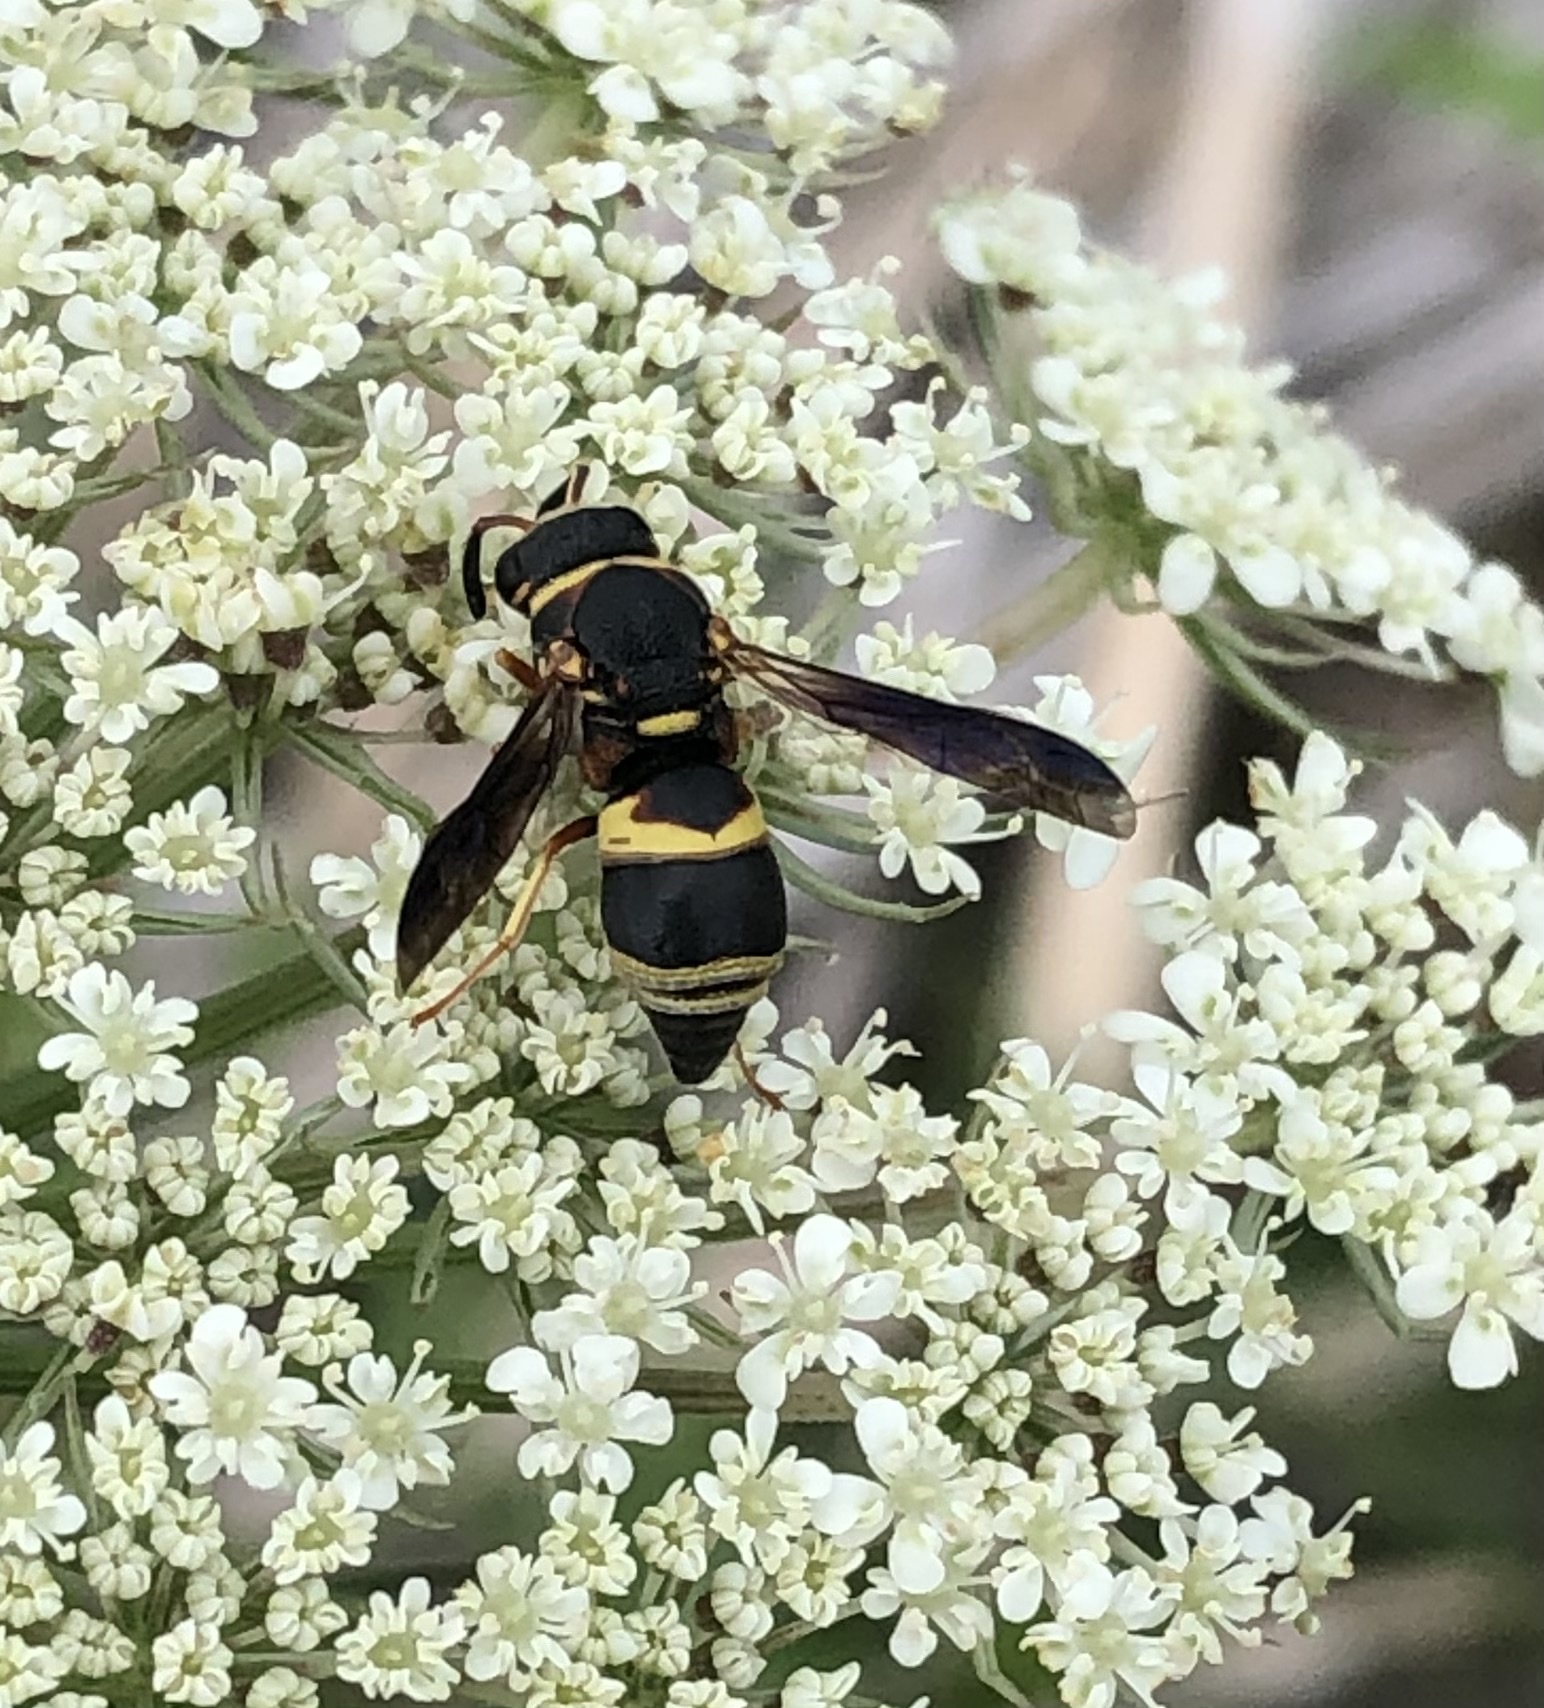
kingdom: Animalia
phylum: Arthropoda
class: Insecta
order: Hymenoptera
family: Eumenidae
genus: Euodynerus
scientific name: Euodynerus hidalgo
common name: Wasp
